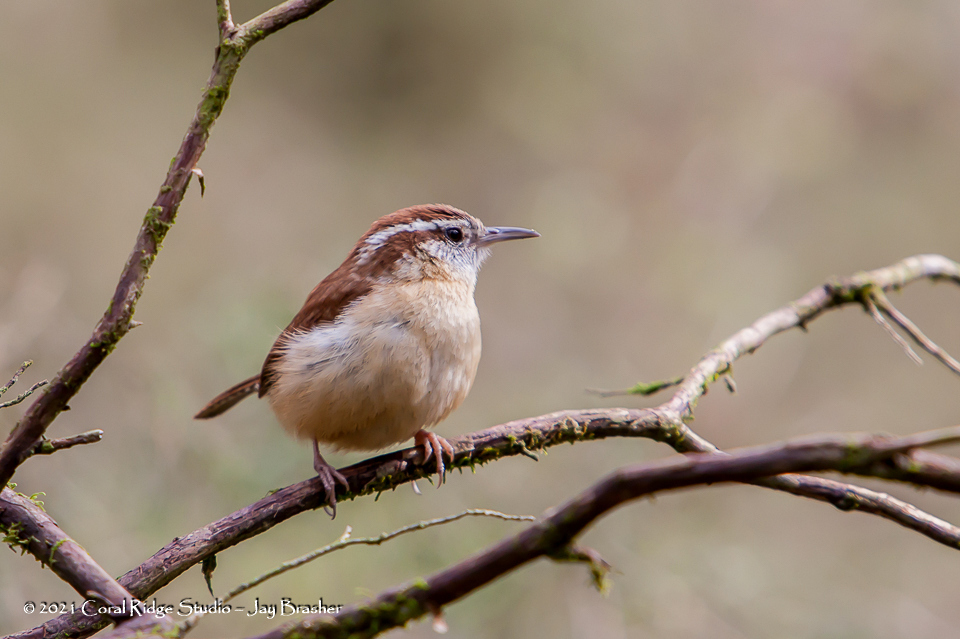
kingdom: Animalia
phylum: Chordata
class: Aves
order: Passeriformes
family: Troglodytidae
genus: Thryothorus
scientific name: Thryothorus ludovicianus
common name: Carolina wren
